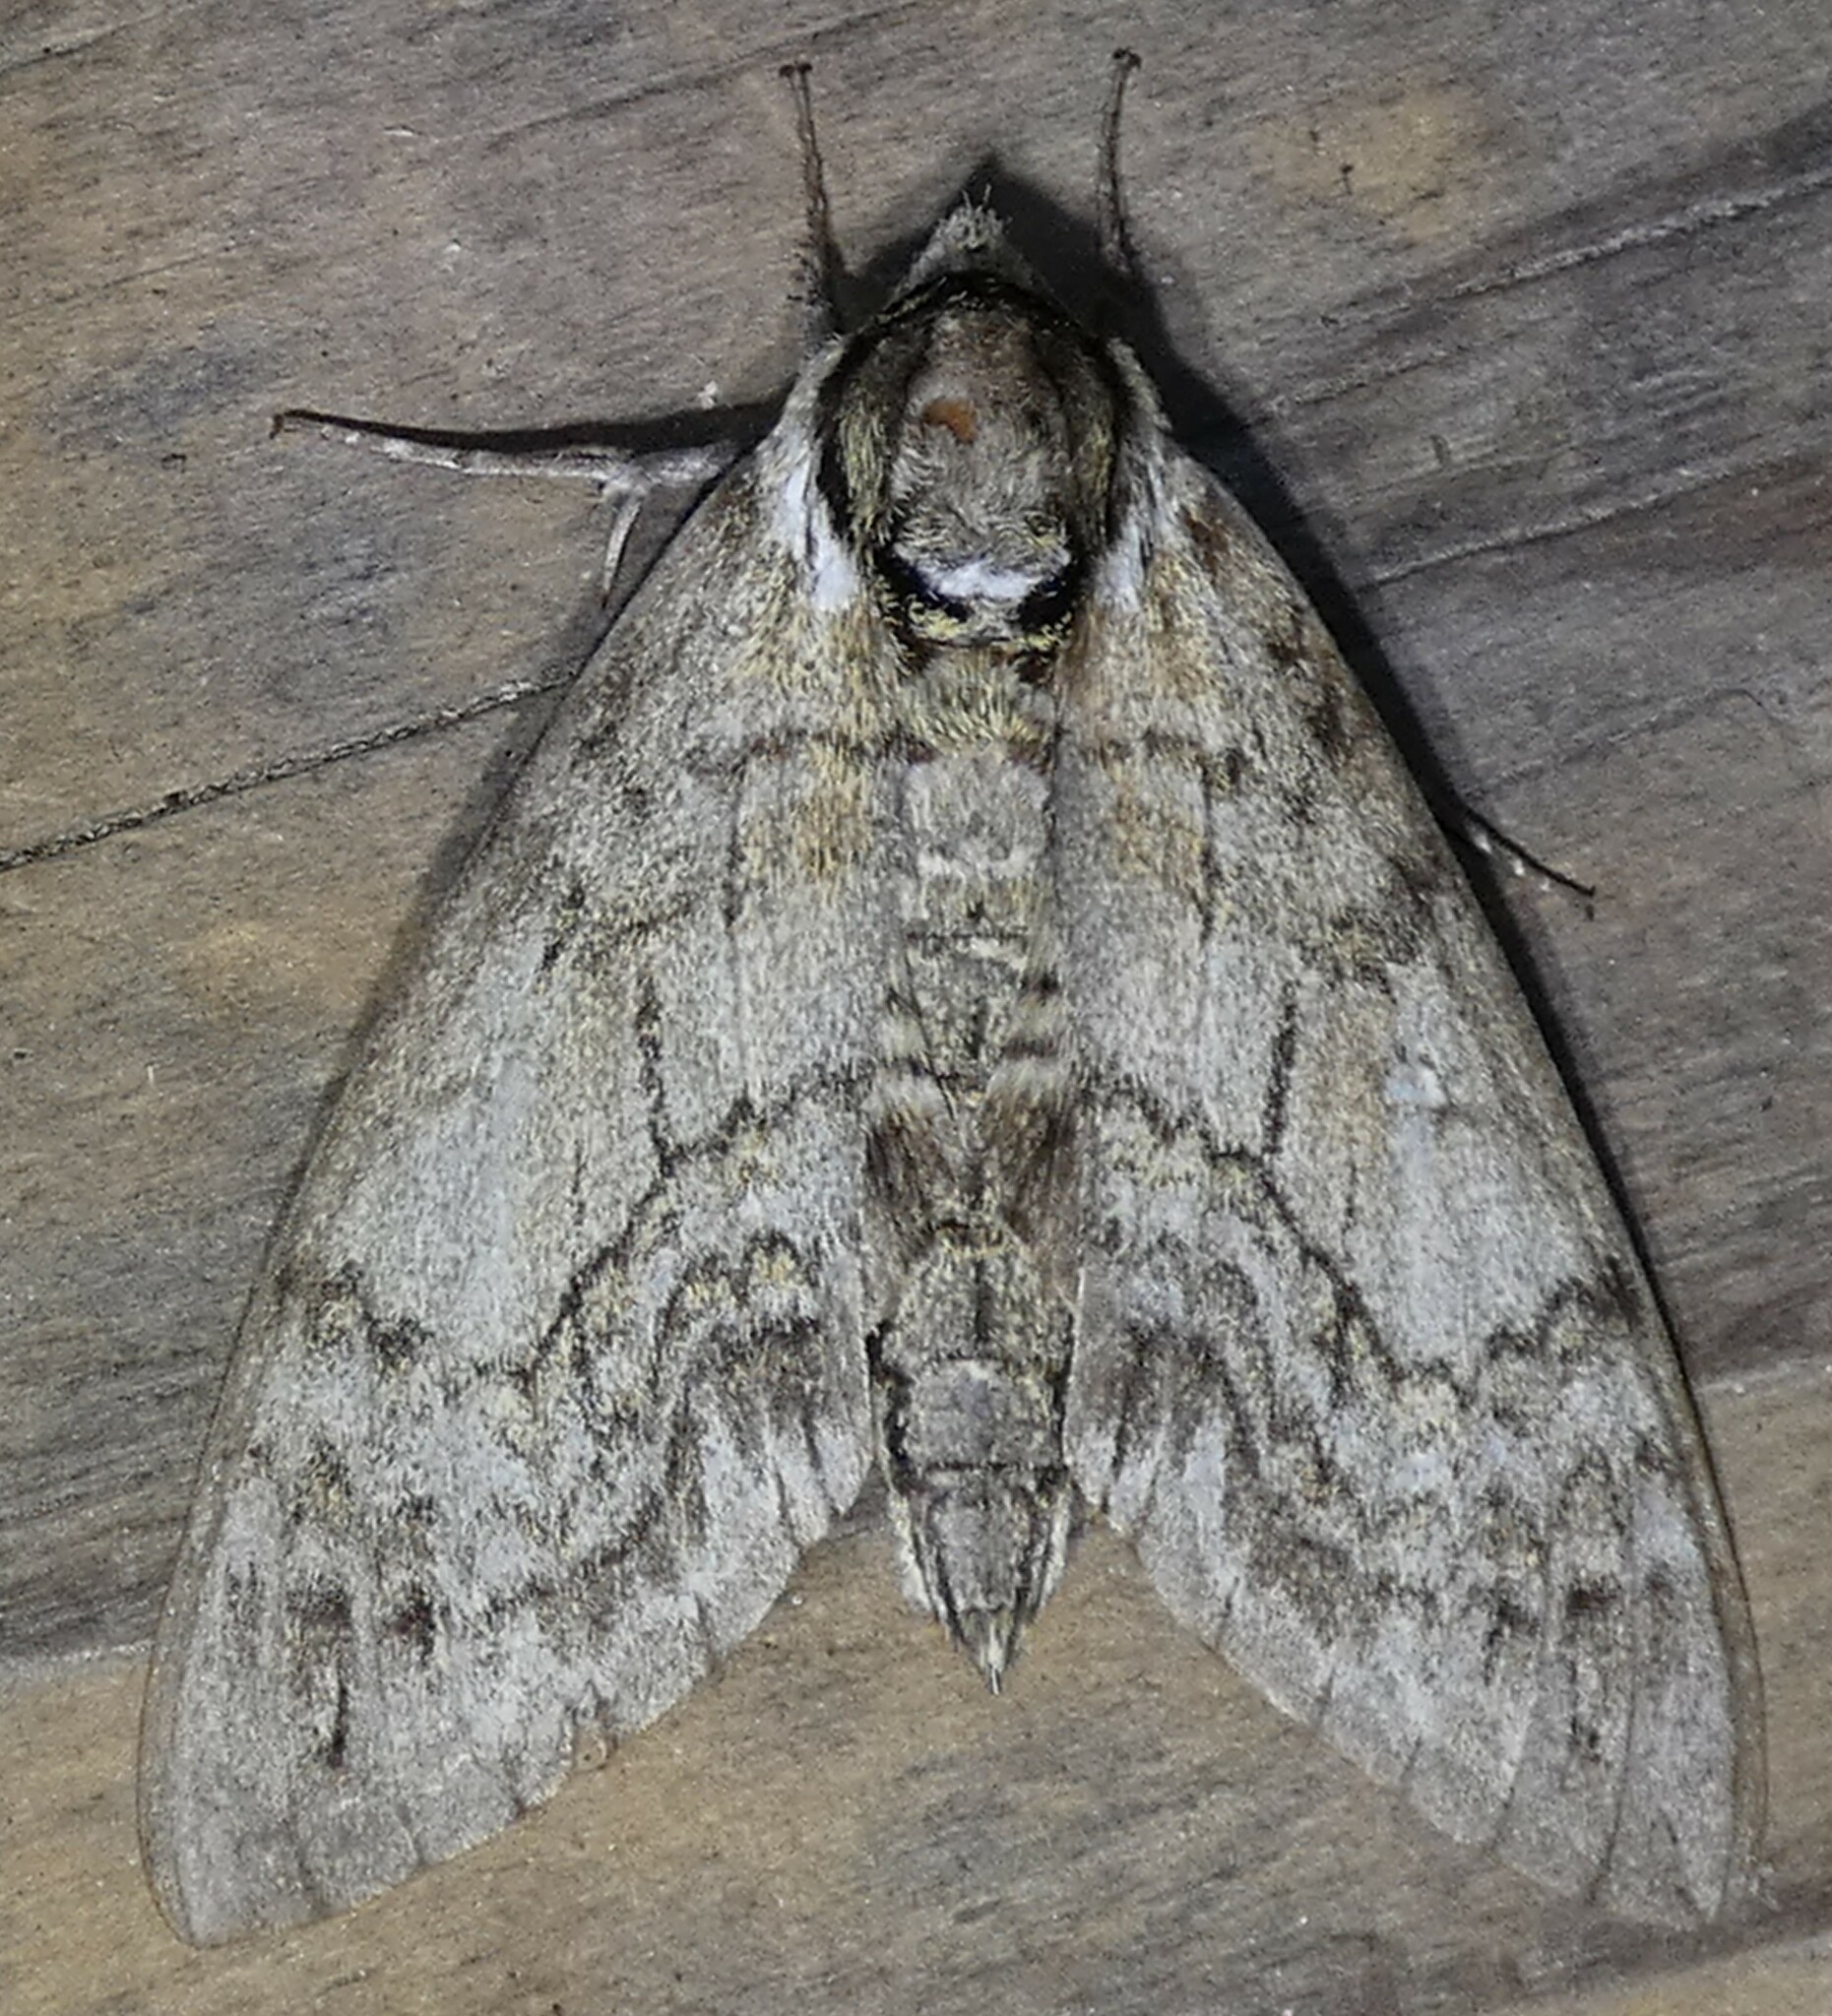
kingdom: Animalia
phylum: Arthropoda
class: Insecta
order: Lepidoptera
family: Sphingidae
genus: Ceratomia
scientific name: Ceratomia undulosa
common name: Waved sphinx
